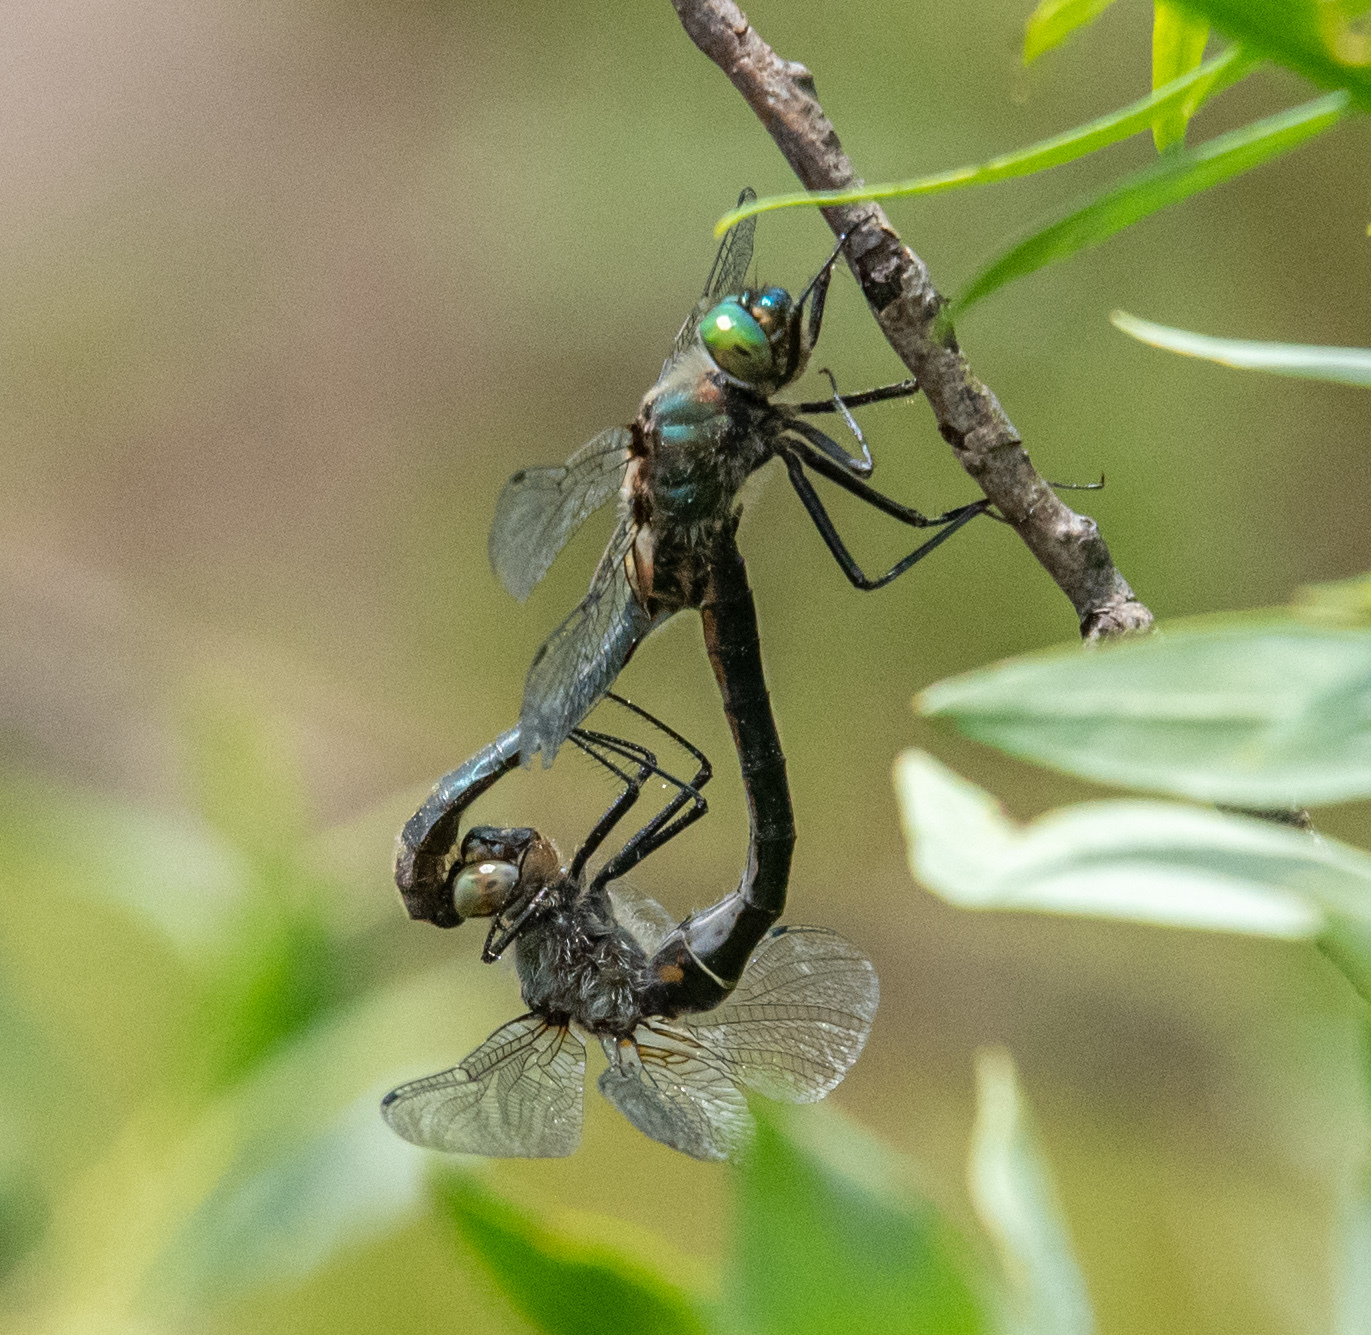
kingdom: Animalia
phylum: Arthropoda
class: Insecta
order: Odonata
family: Corduliidae
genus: Cordulia
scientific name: Cordulia shurtleffii
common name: American emerald
